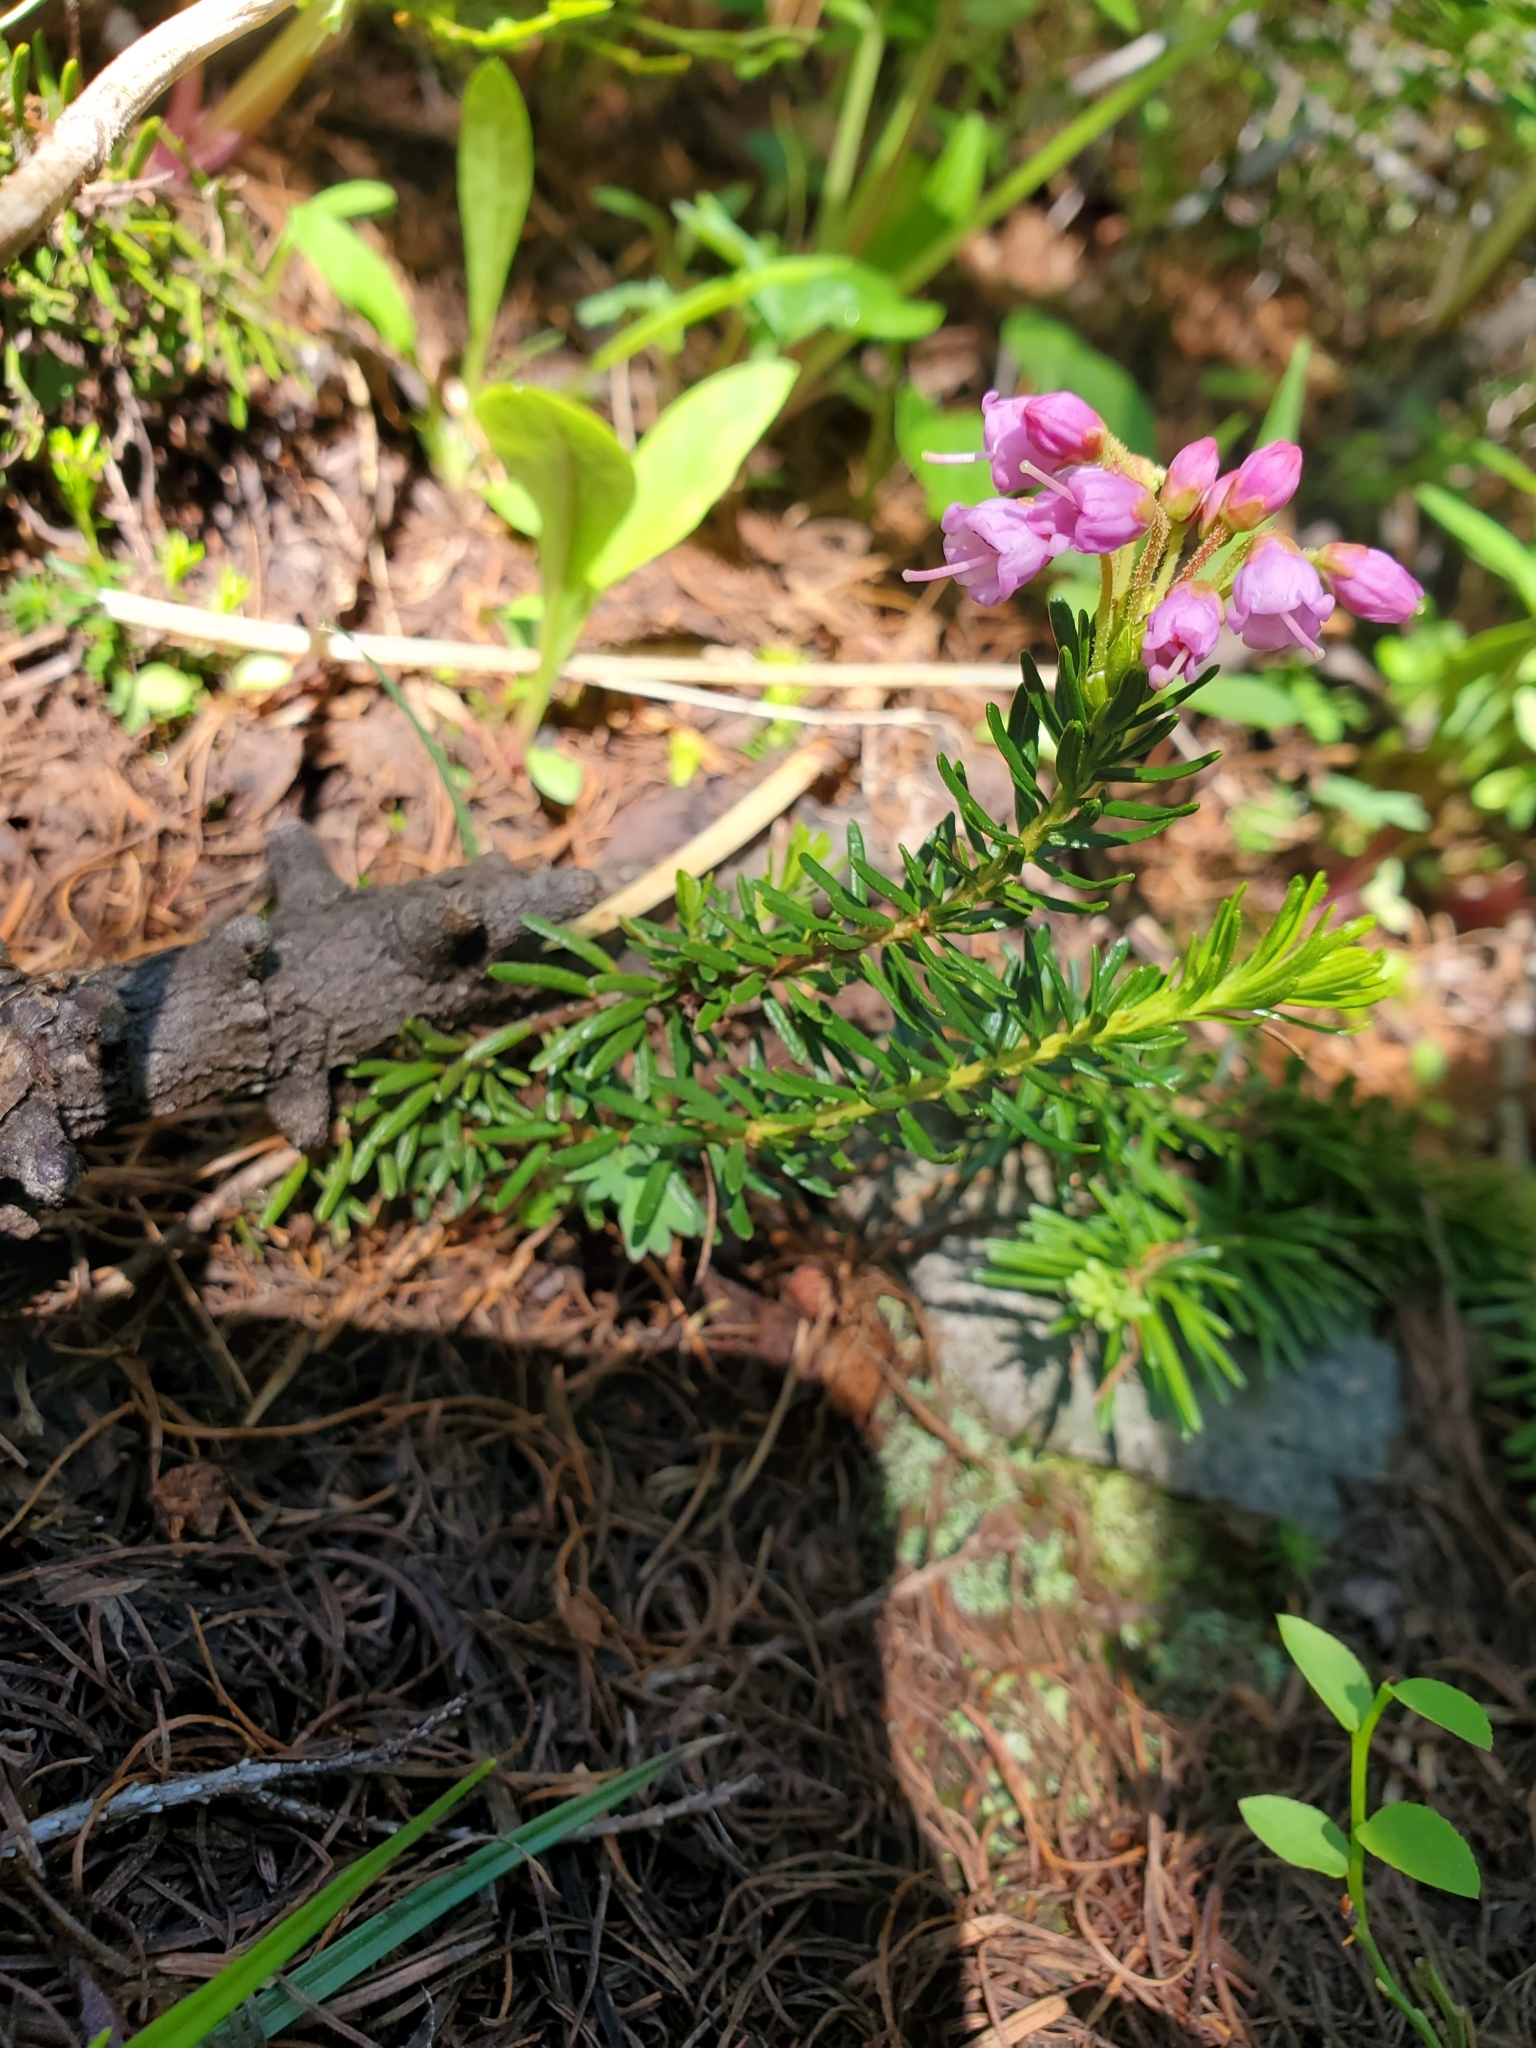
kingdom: Plantae
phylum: Tracheophyta
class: Magnoliopsida
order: Ericales
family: Ericaceae
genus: Phyllodoce
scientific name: Phyllodoce empetriformis
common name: Pink mountain heather
